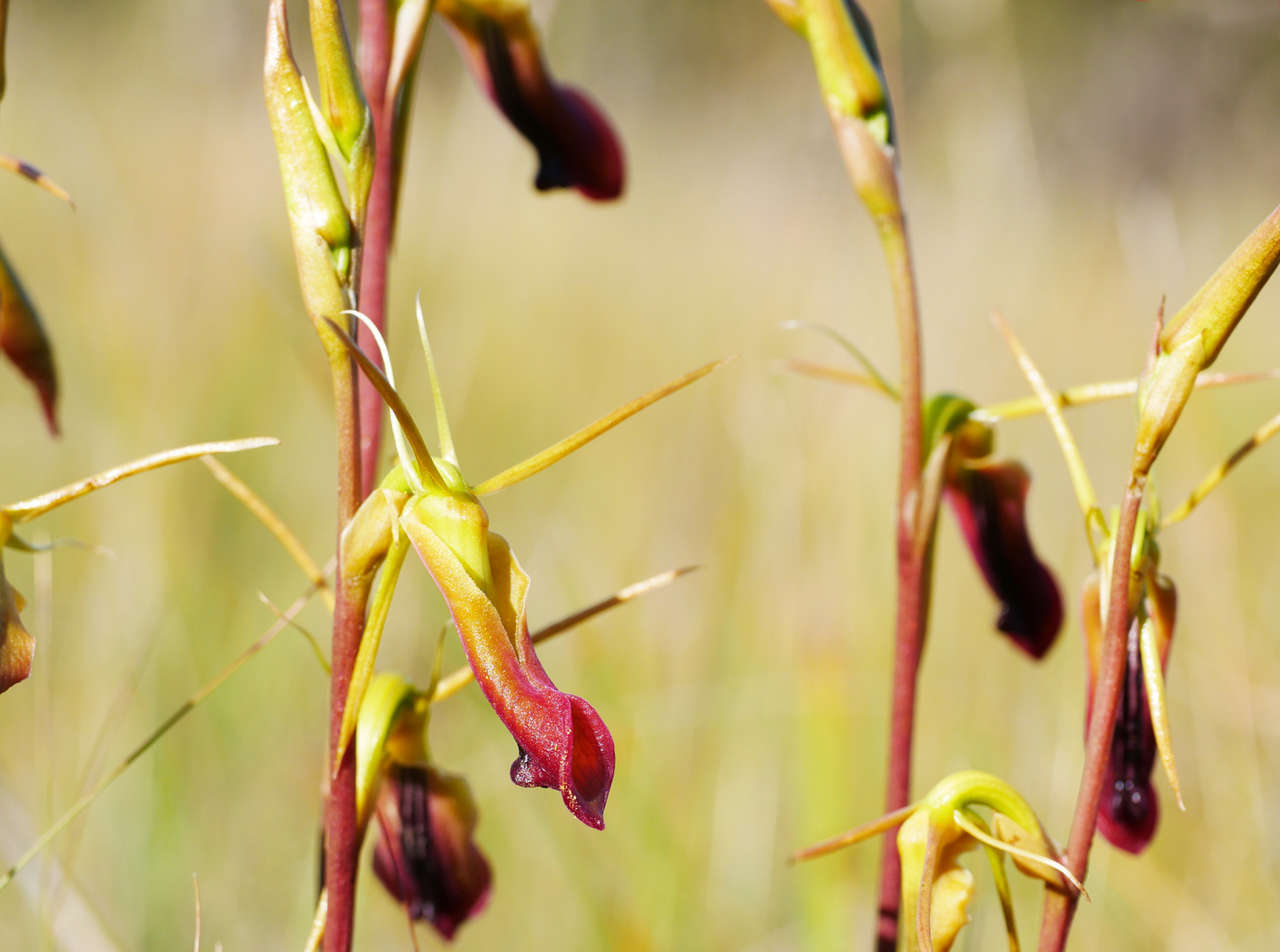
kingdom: Plantae
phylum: Tracheophyta
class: Liliopsida
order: Asparagales
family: Orchidaceae
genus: Cryptostylis
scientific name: Cryptostylis subulata
